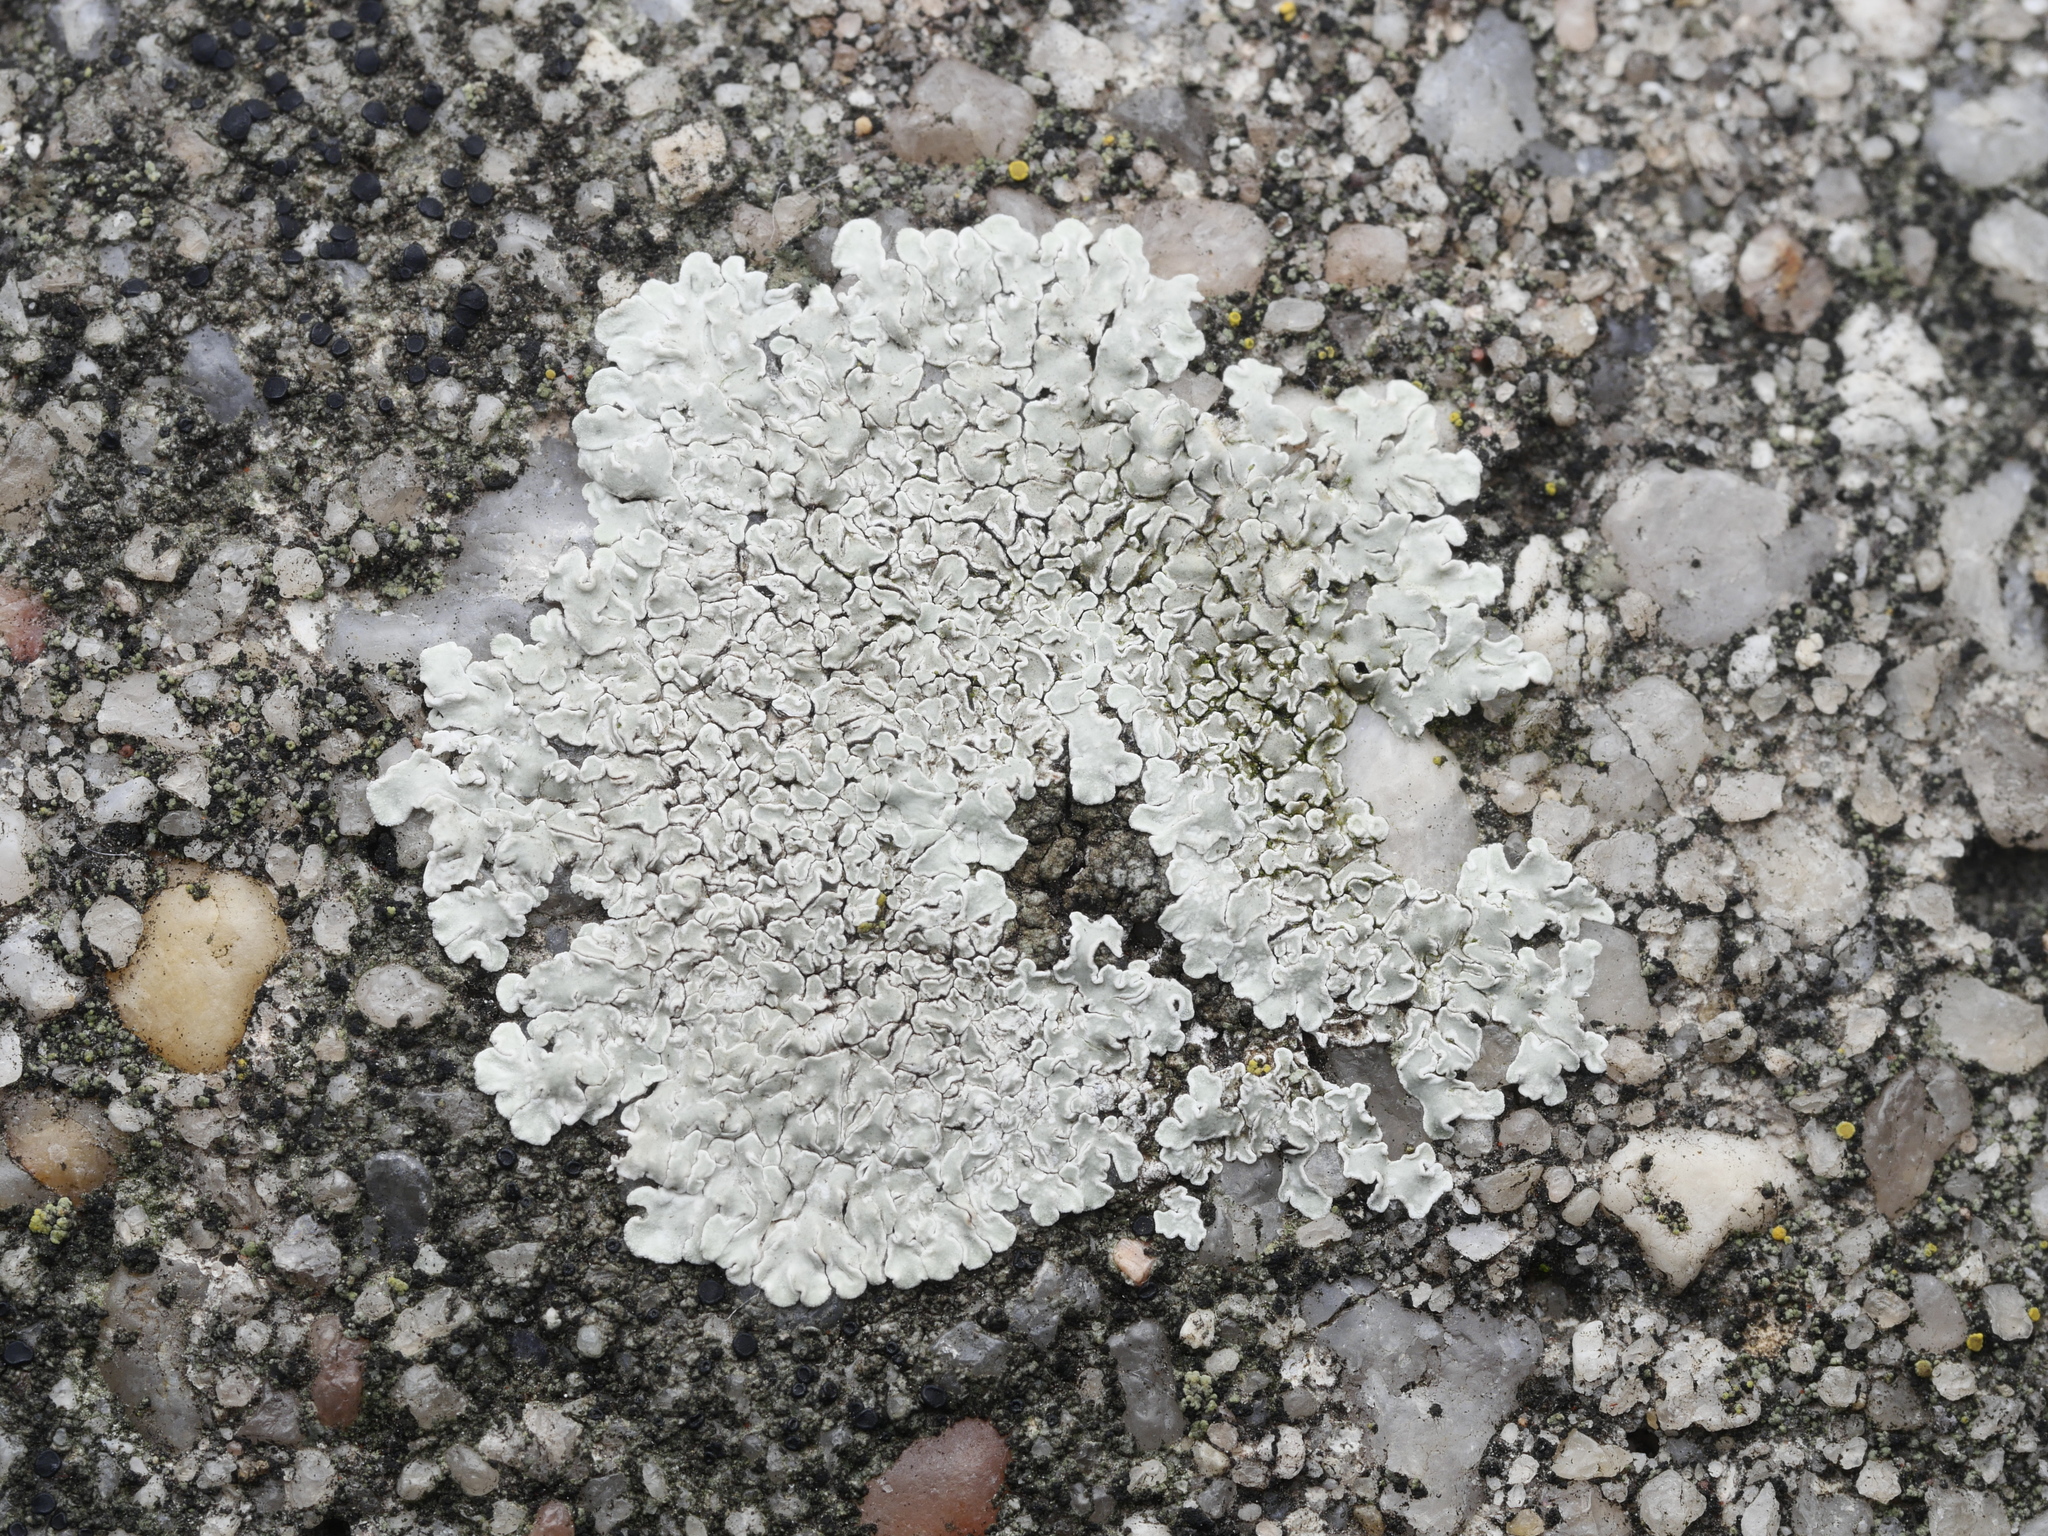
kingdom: Fungi
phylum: Ascomycota
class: Lecanoromycetes
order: Lecanorales
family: Lecanoraceae
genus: Protoparmeliopsis
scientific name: Protoparmeliopsis muralis
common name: Stonewall rim lichen
